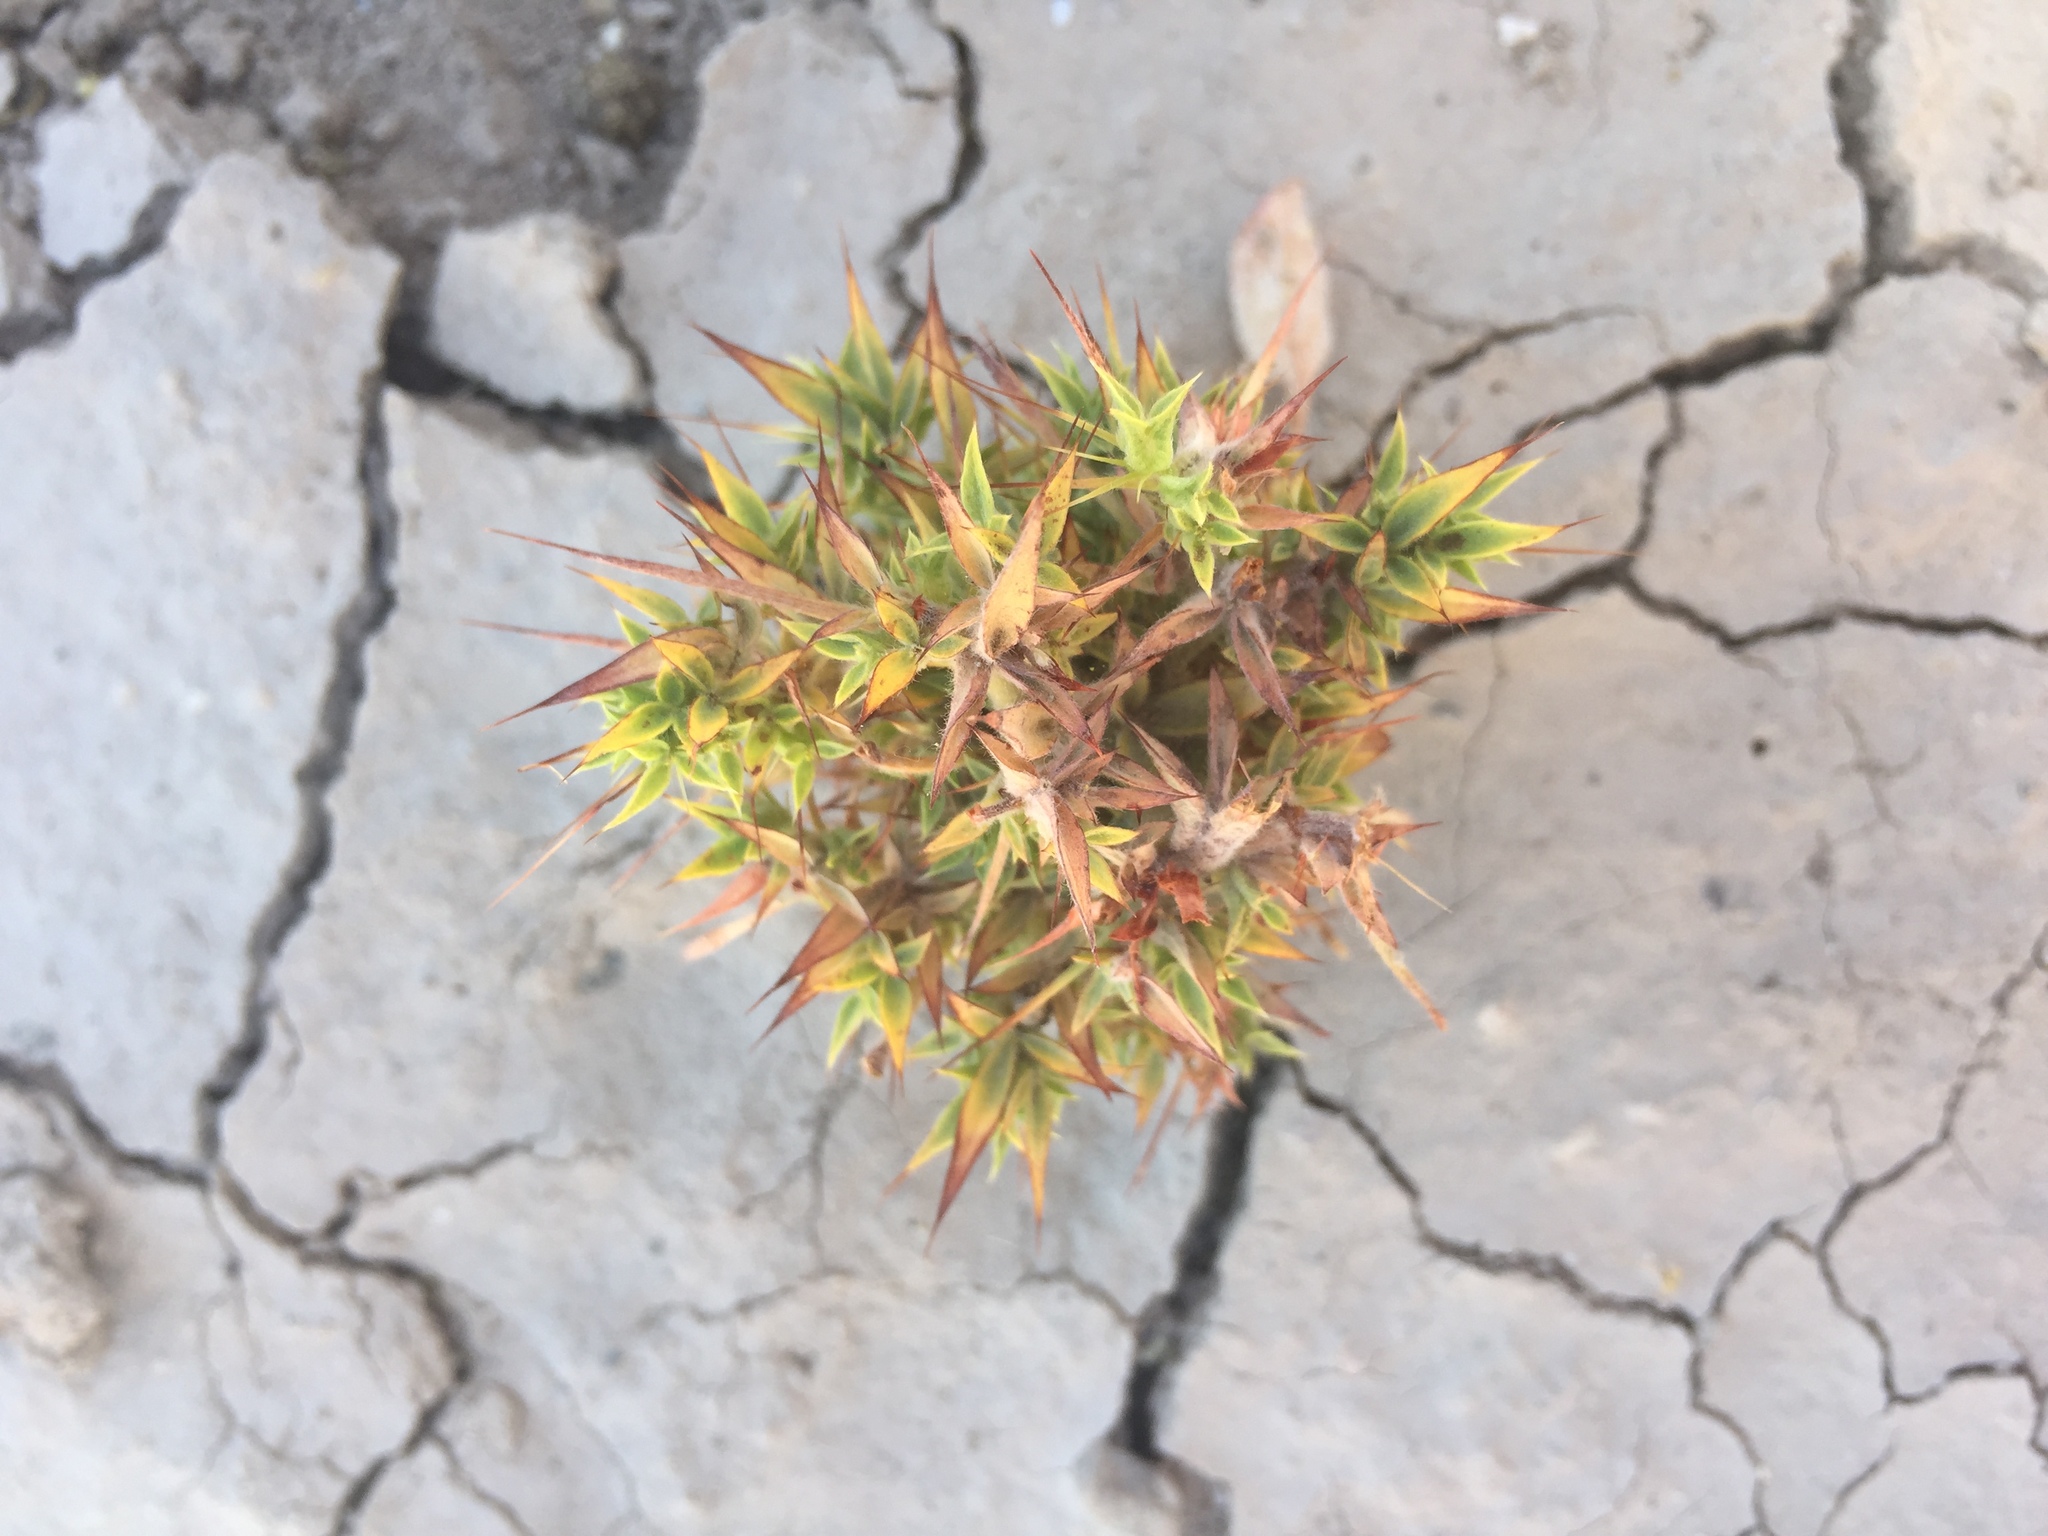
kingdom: Plantae
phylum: Tracheophyta
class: Magnoliopsida
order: Caryophyllales
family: Polygonaceae
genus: Chorizanthe
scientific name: Chorizanthe rigida
